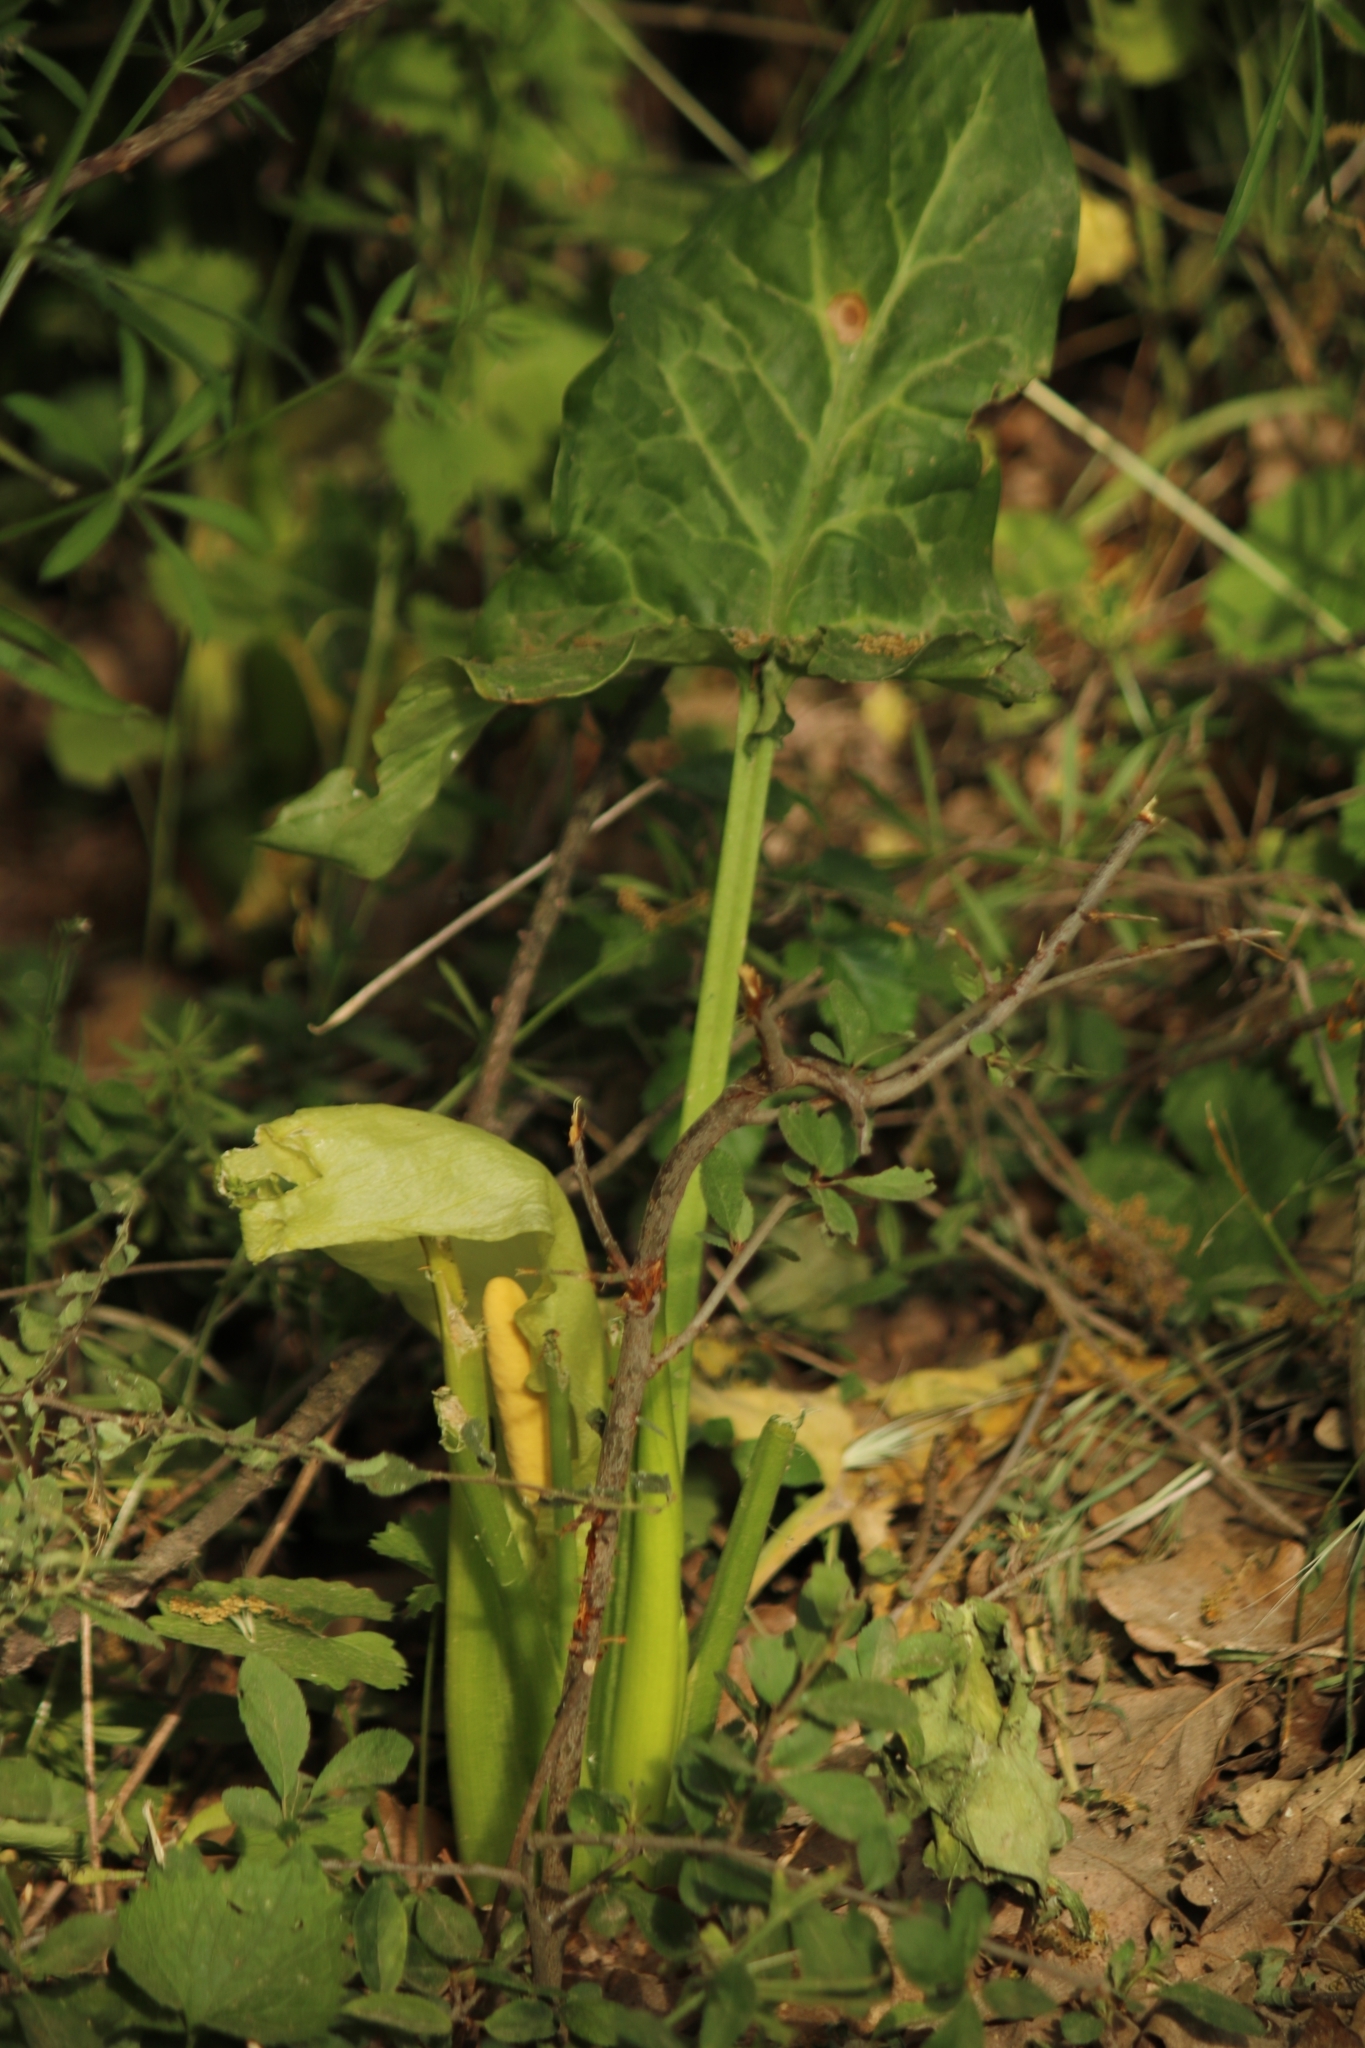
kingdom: Plantae
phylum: Tracheophyta
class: Liliopsida
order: Alismatales
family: Araceae
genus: Arum
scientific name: Arum italicum
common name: Italian lords-and-ladies
